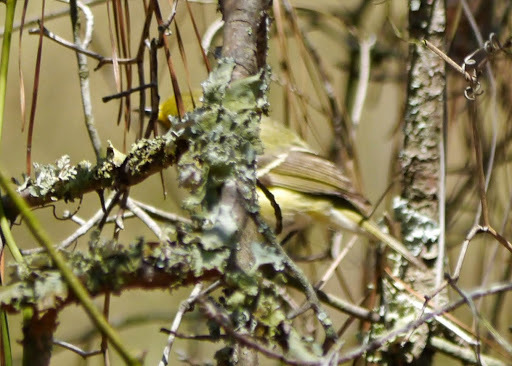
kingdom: Animalia
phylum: Chordata
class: Aves
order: Passeriformes
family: Vireonidae
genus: Vireo
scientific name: Vireo griseus
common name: White-eyed vireo
